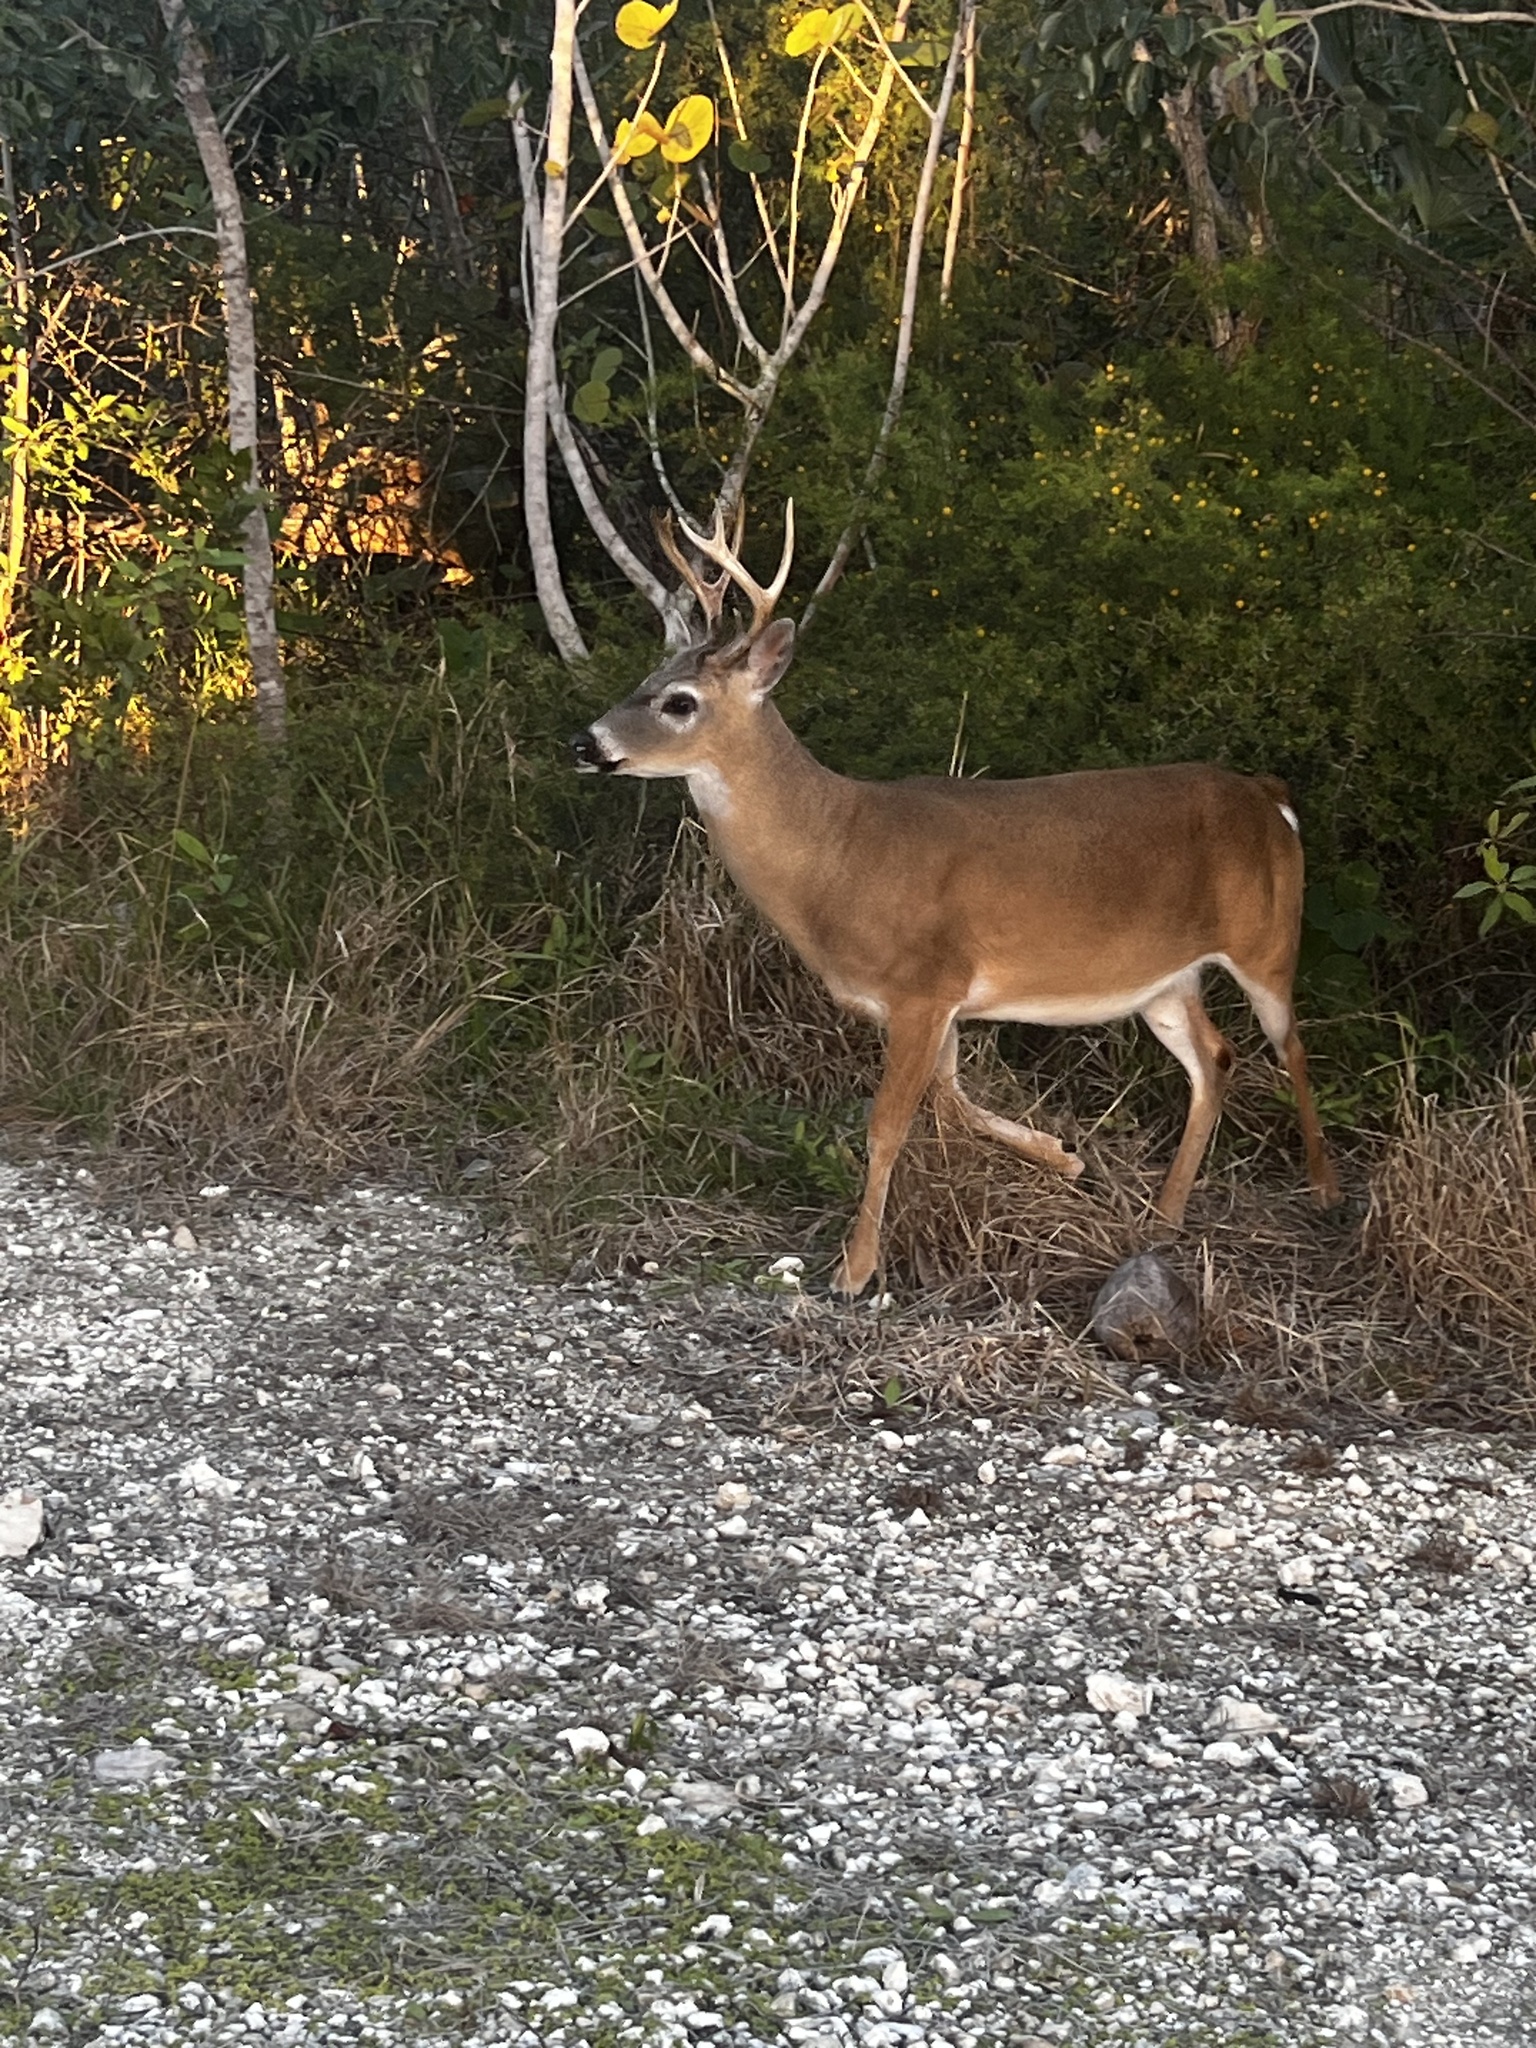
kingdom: Animalia
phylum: Chordata
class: Mammalia
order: Artiodactyla
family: Cervidae
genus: Odocoileus
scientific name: Odocoileus virginianus
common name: White-tailed deer
